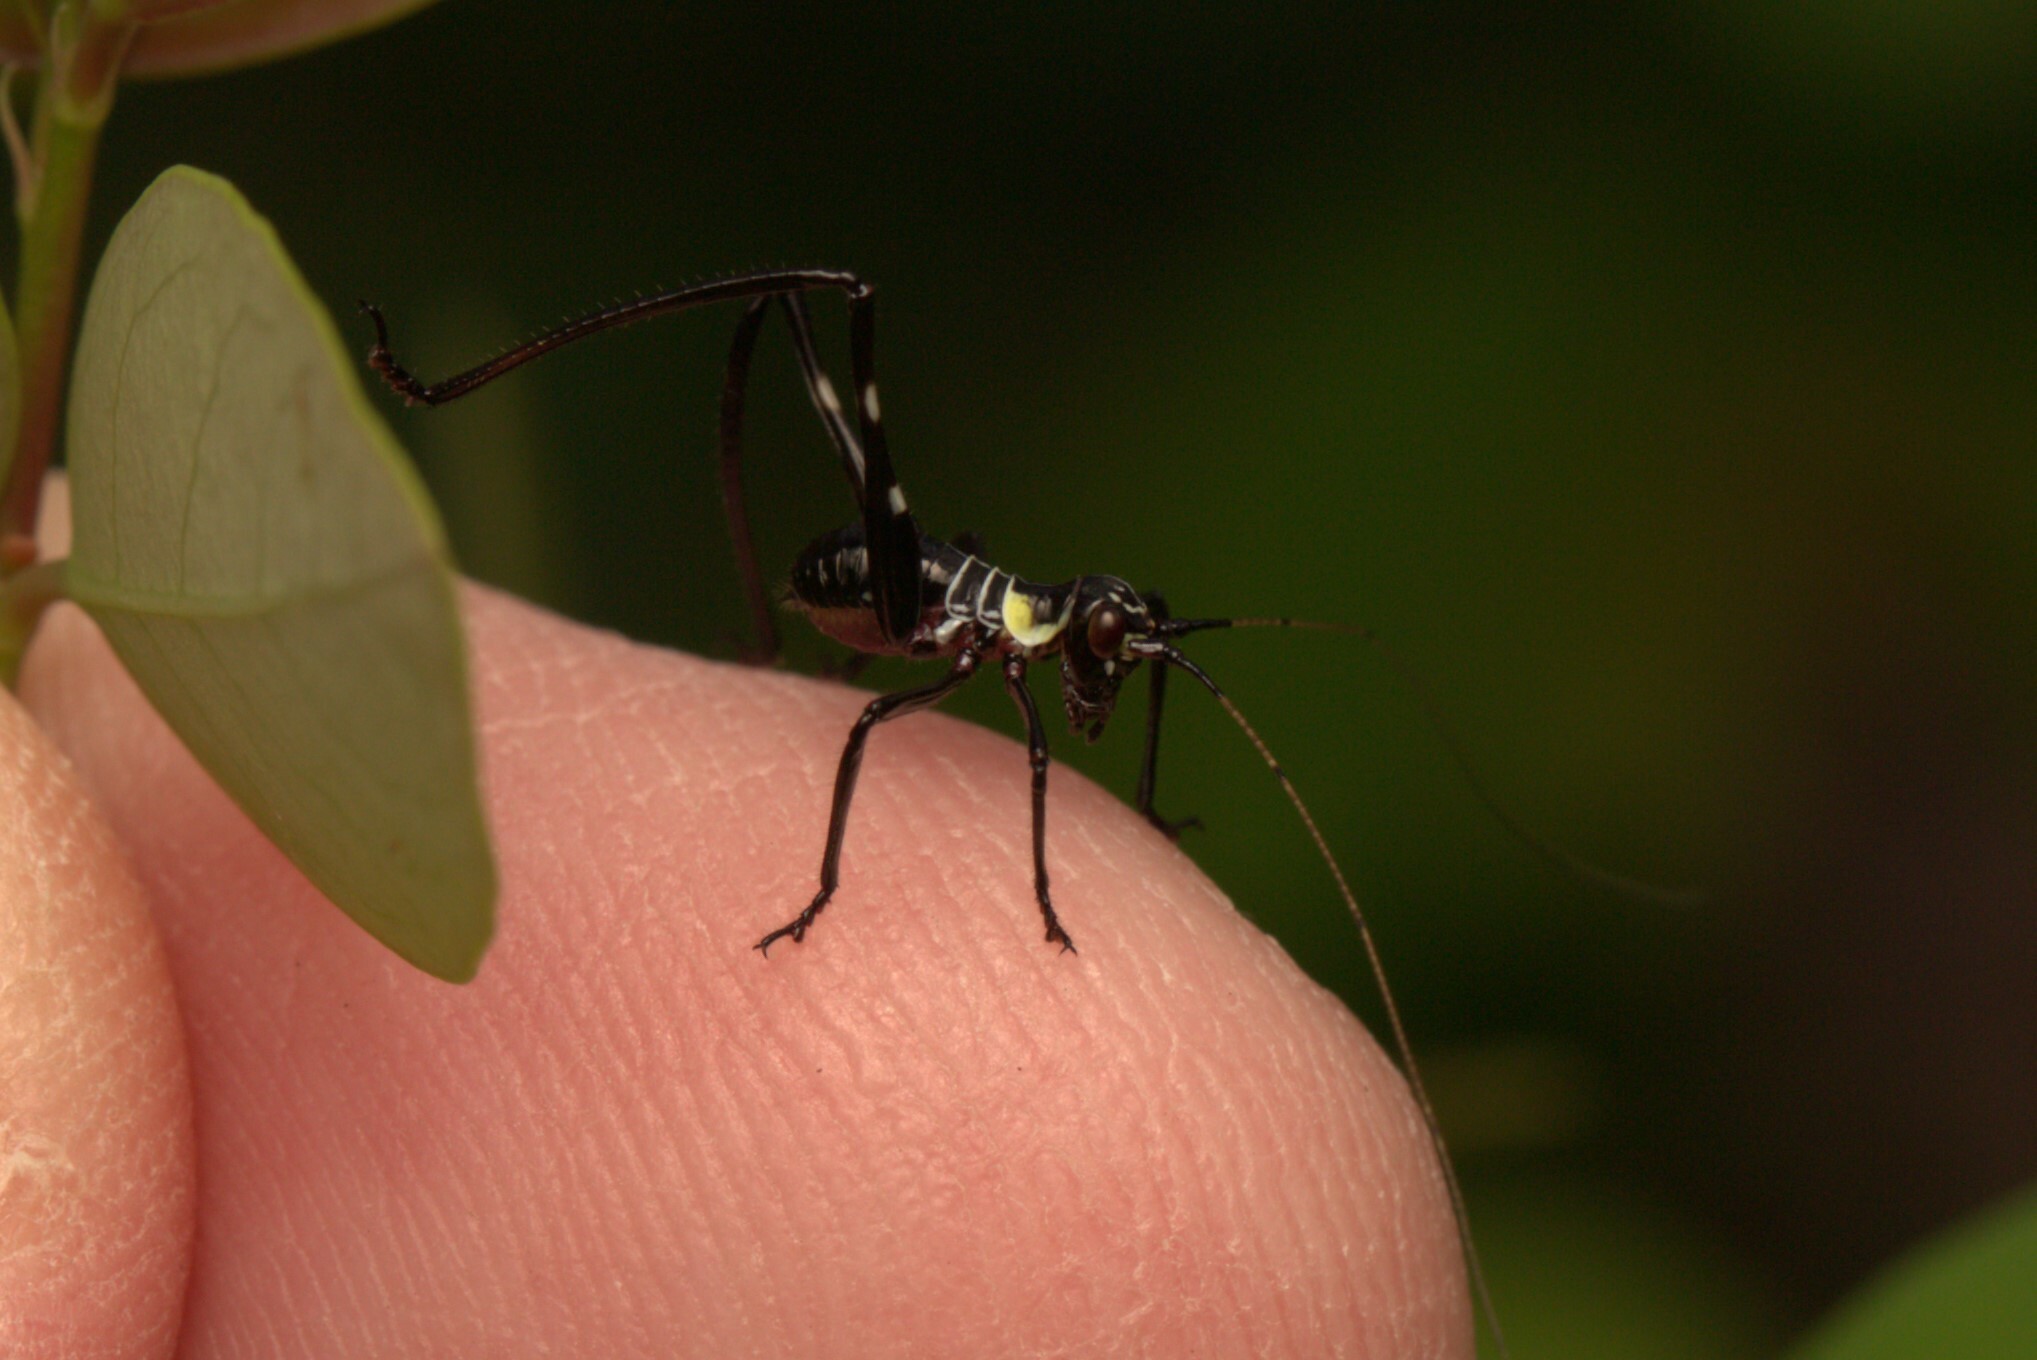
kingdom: Animalia
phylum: Arthropoda
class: Insecta
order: Orthoptera
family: Tettigoniidae
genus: Ephippitytha
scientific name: Ephippitytha trigintiduoguttata
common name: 32-spotted katydid
